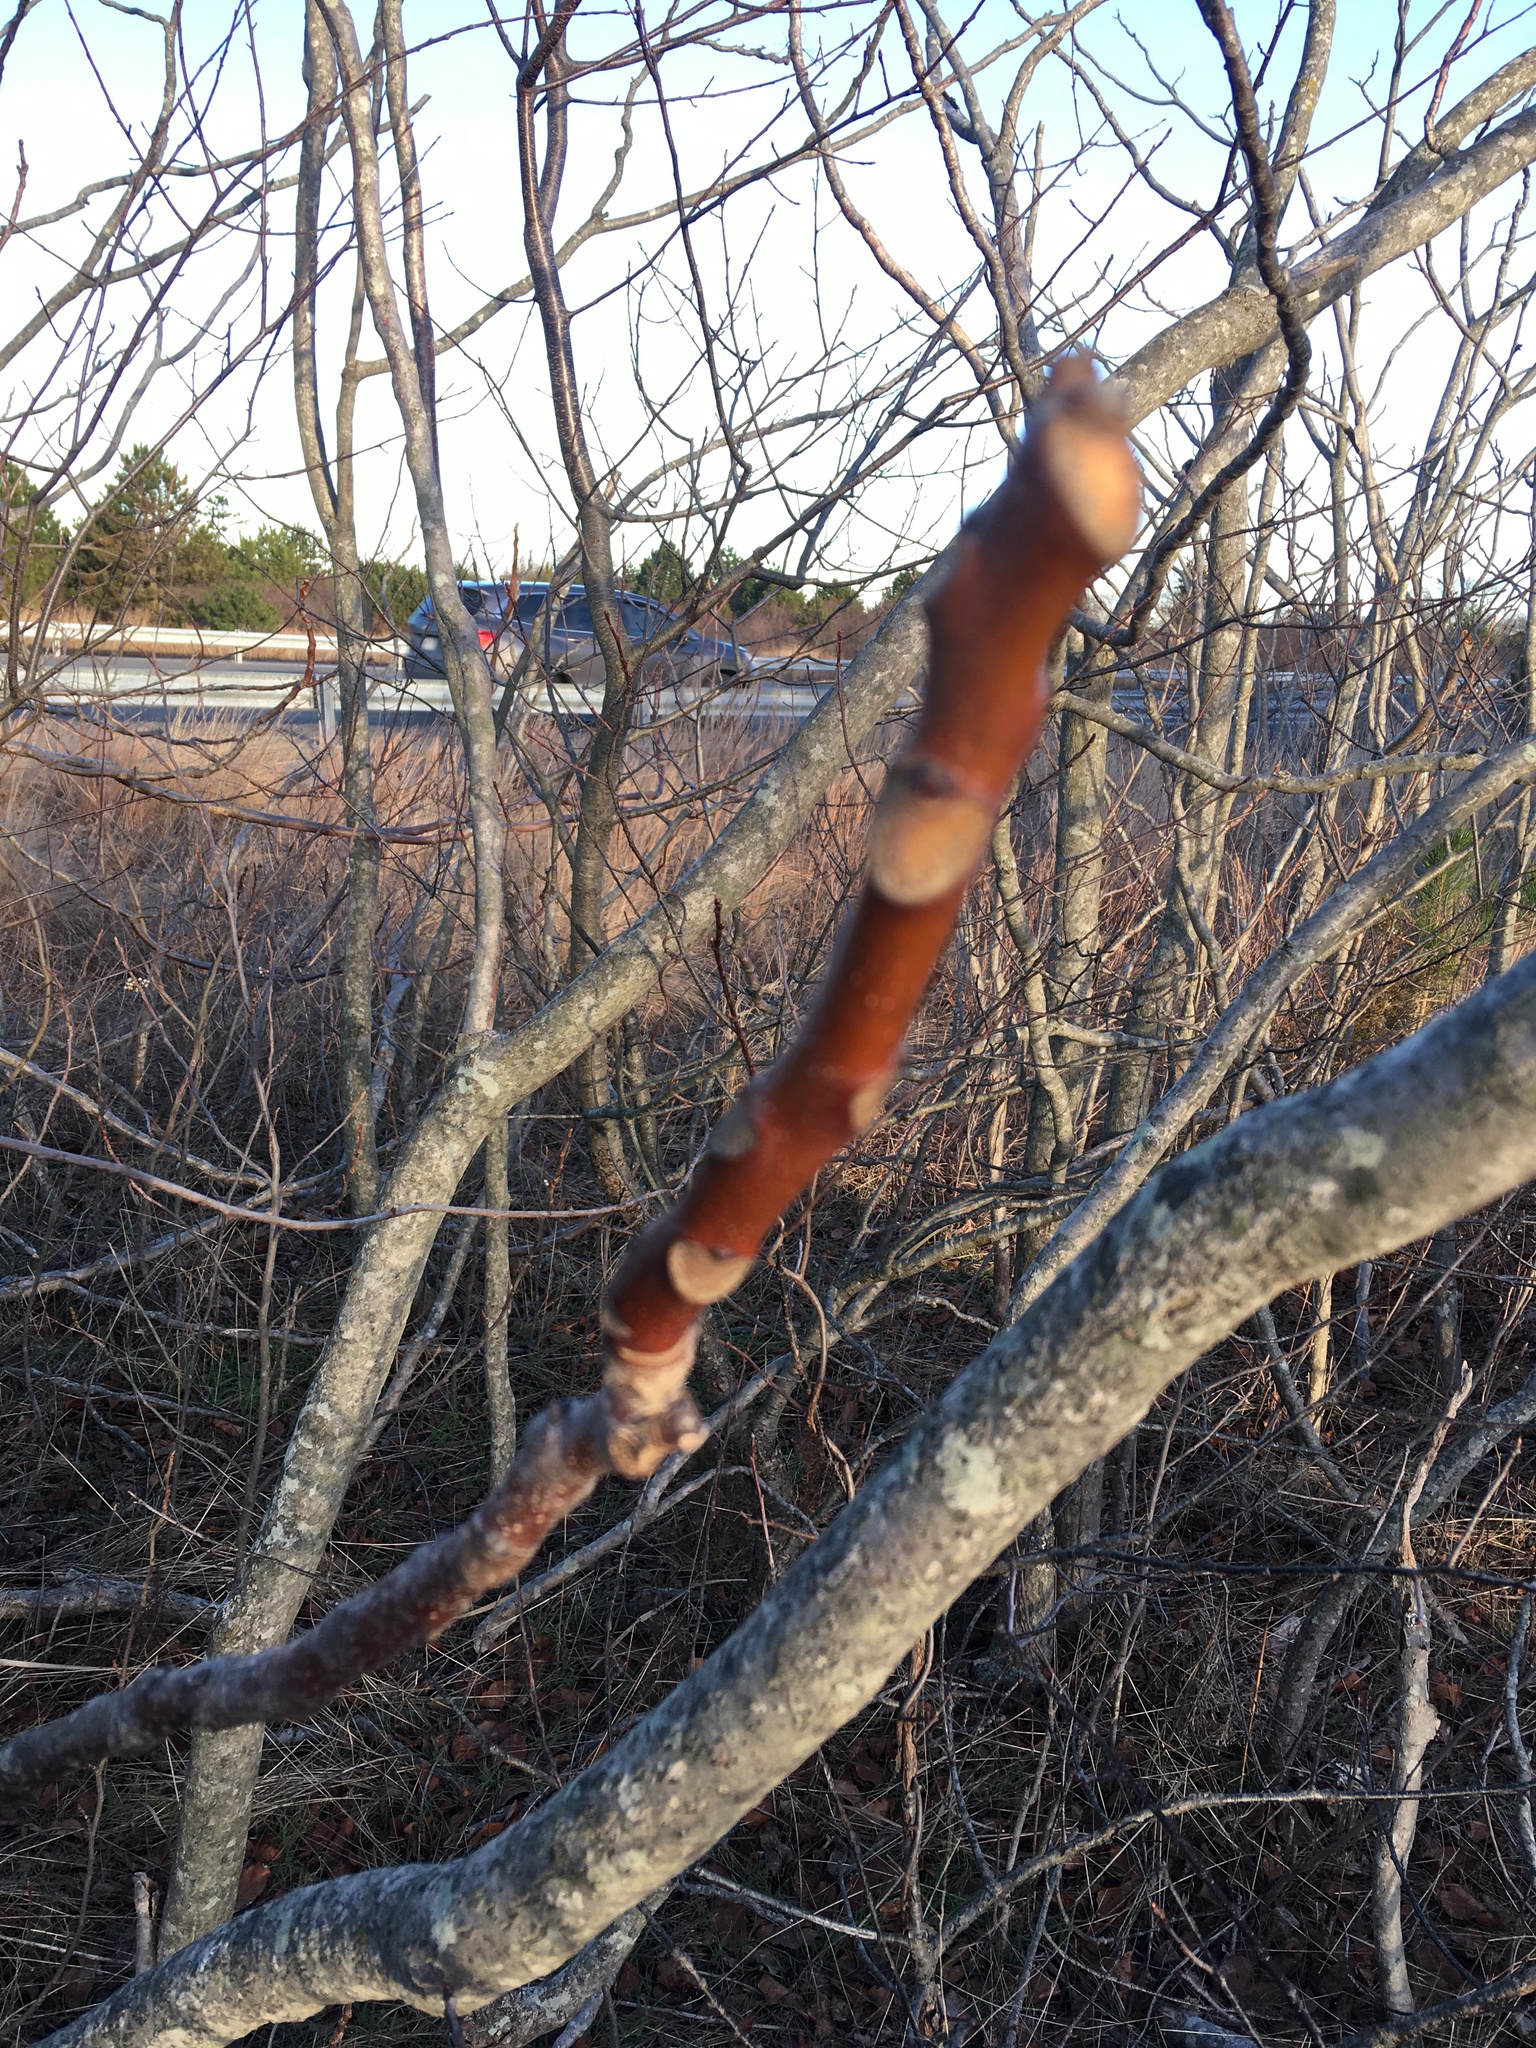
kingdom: Plantae
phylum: Tracheophyta
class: Magnoliopsida
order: Sapindales
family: Simaroubaceae
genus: Ailanthus
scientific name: Ailanthus altissima
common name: Tree-of-heaven
